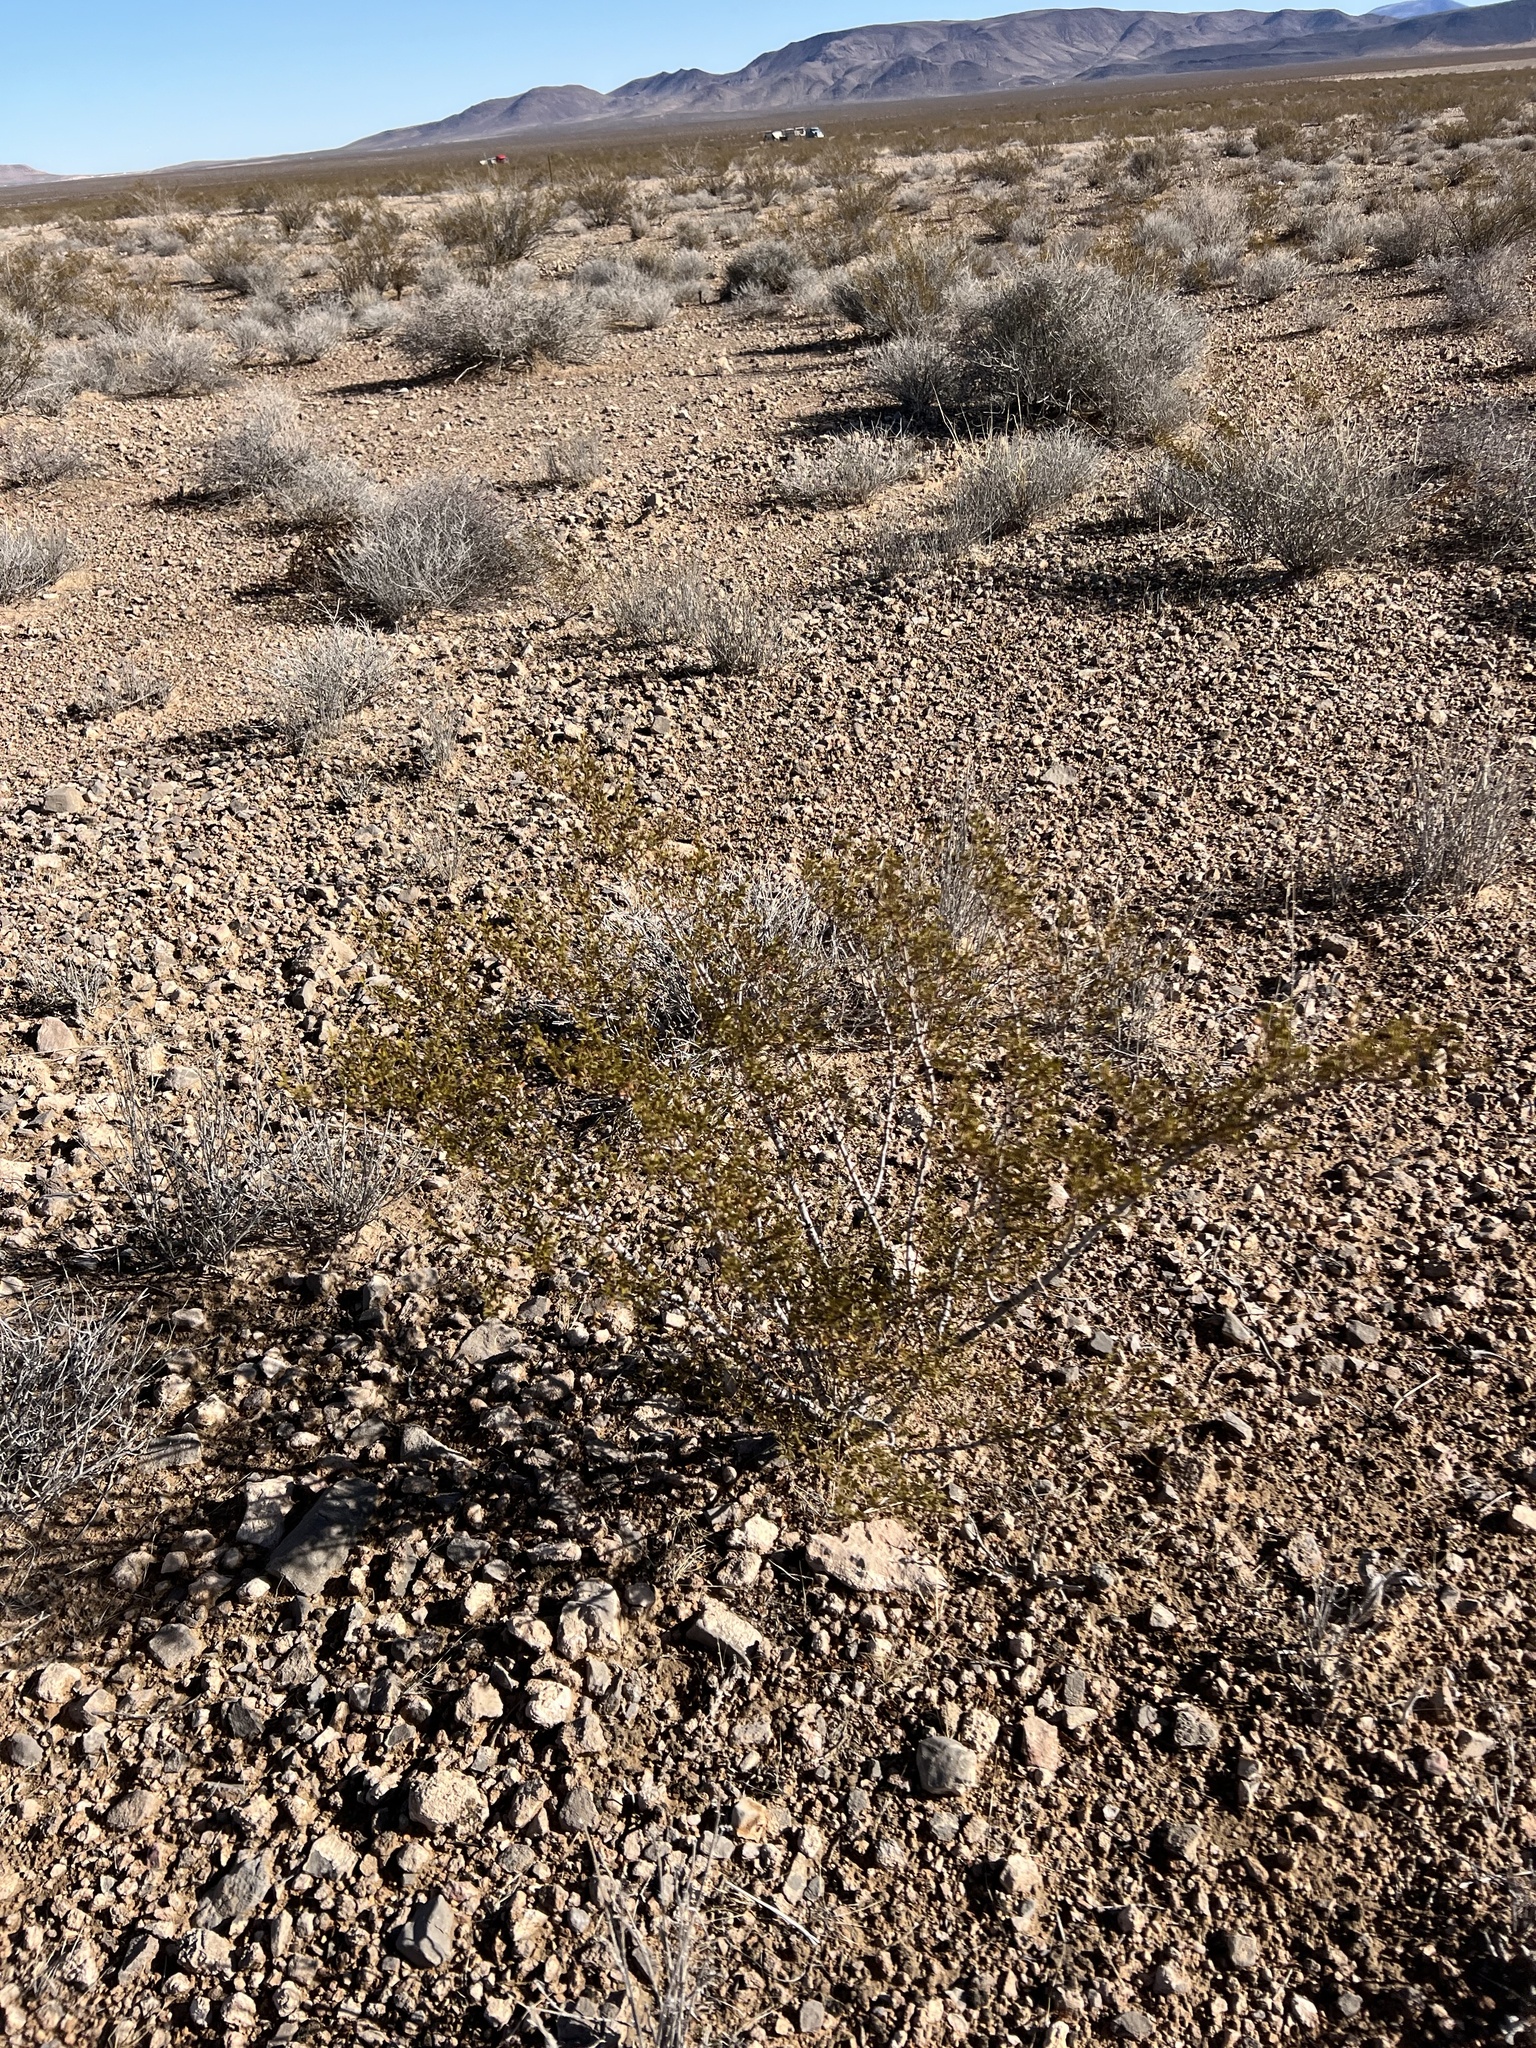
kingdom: Plantae
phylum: Tracheophyta
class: Magnoliopsida
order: Zygophyllales
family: Zygophyllaceae
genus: Larrea
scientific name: Larrea tridentata
